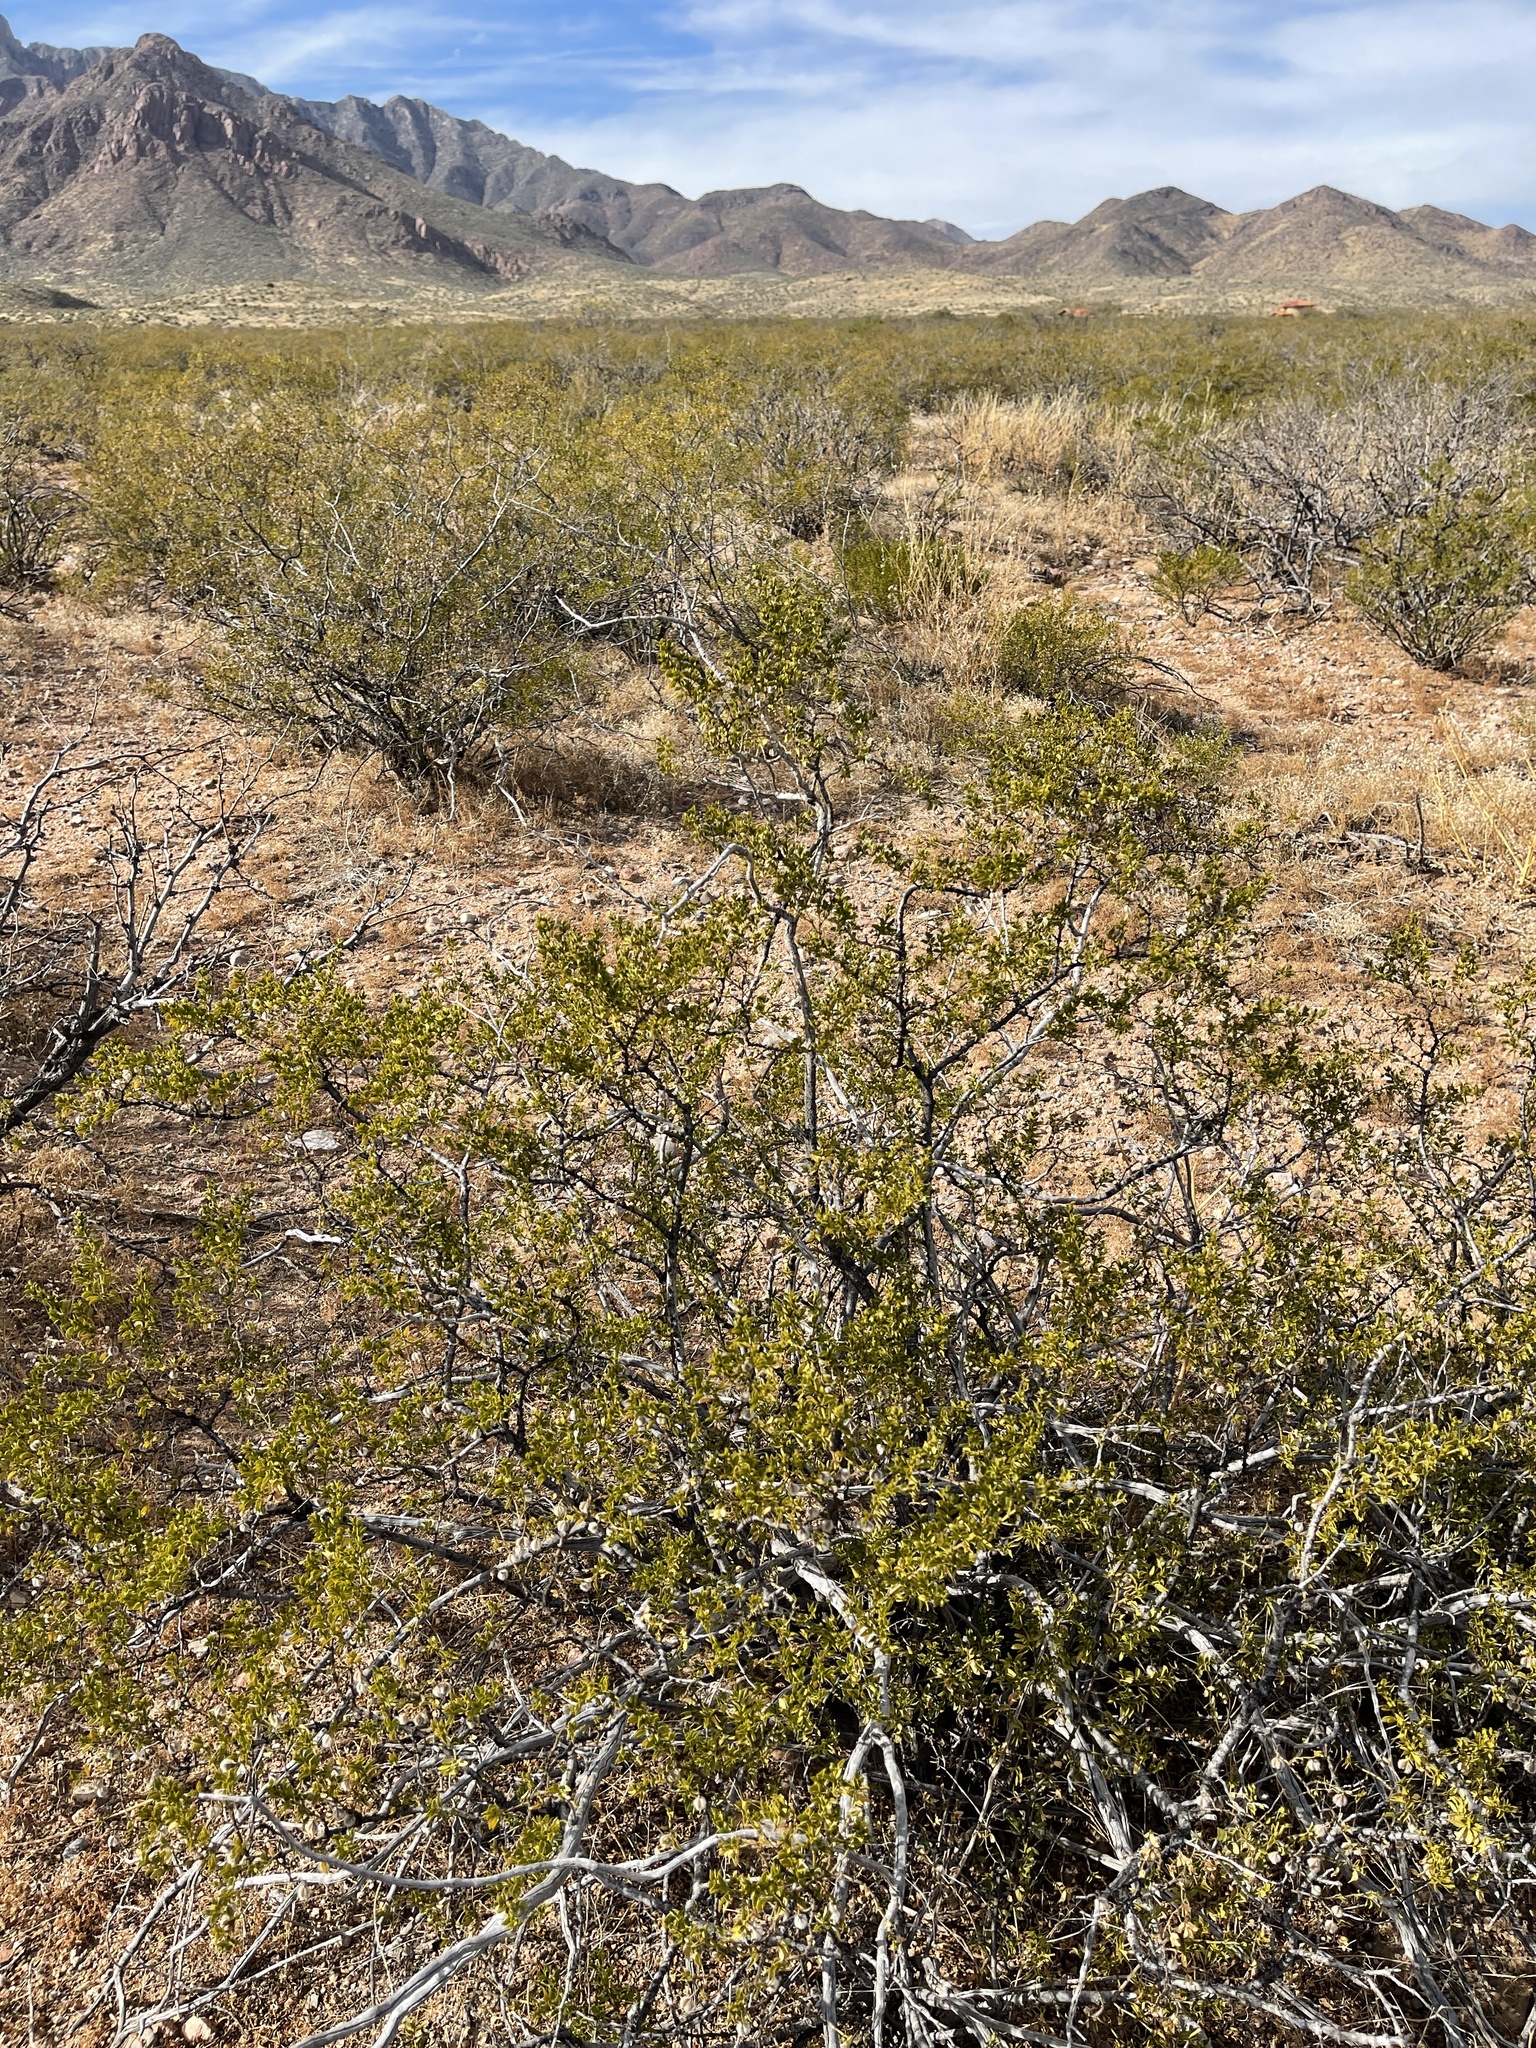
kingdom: Plantae
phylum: Tracheophyta
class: Magnoliopsida
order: Zygophyllales
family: Zygophyllaceae
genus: Larrea
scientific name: Larrea tridentata
